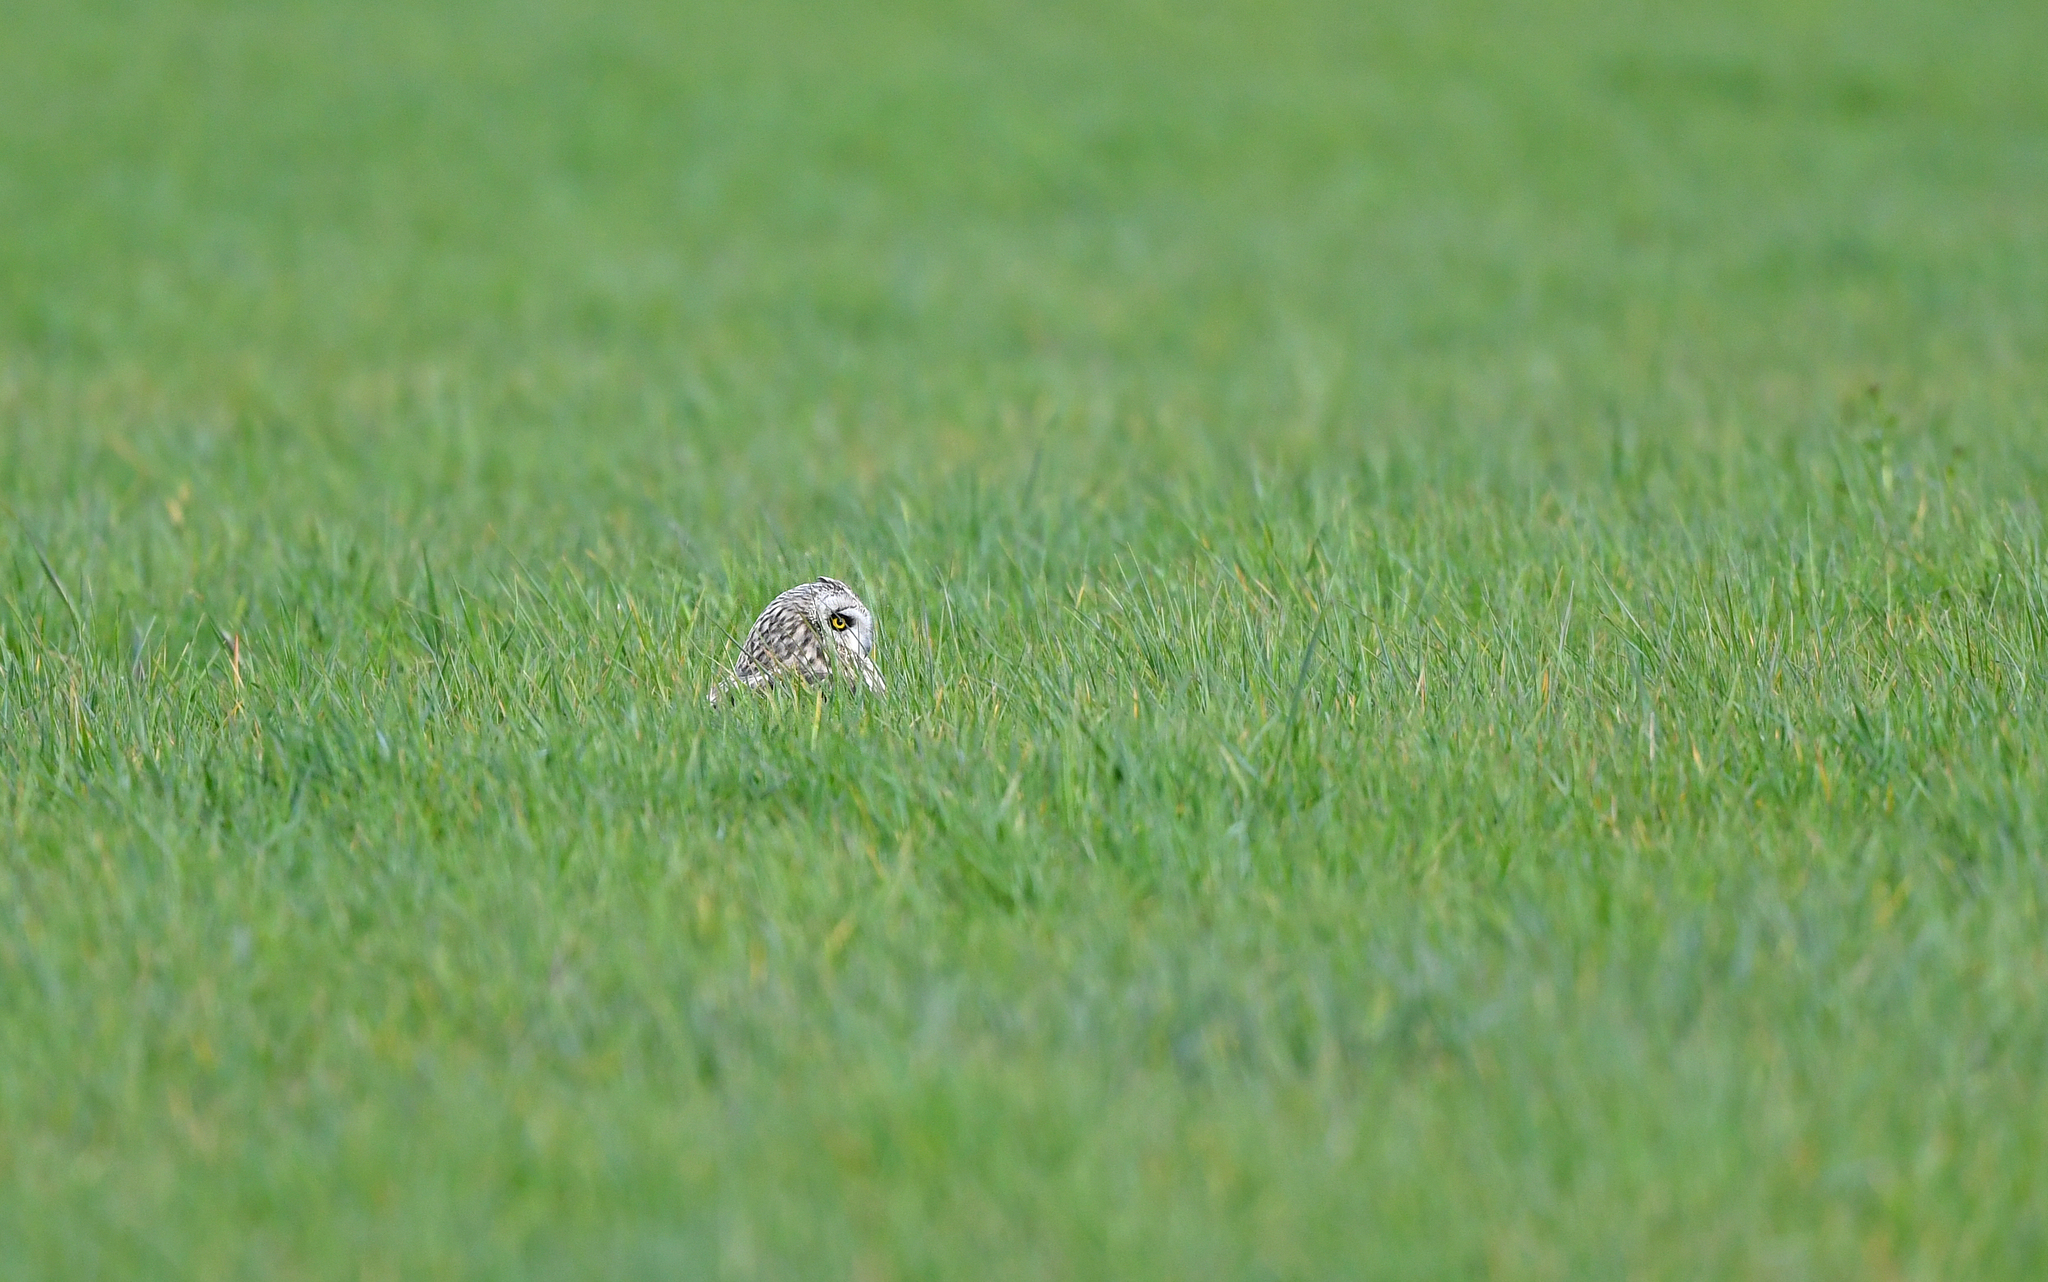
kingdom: Animalia
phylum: Chordata
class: Aves
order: Strigiformes
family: Strigidae
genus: Asio
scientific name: Asio flammeus
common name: Short-eared owl
